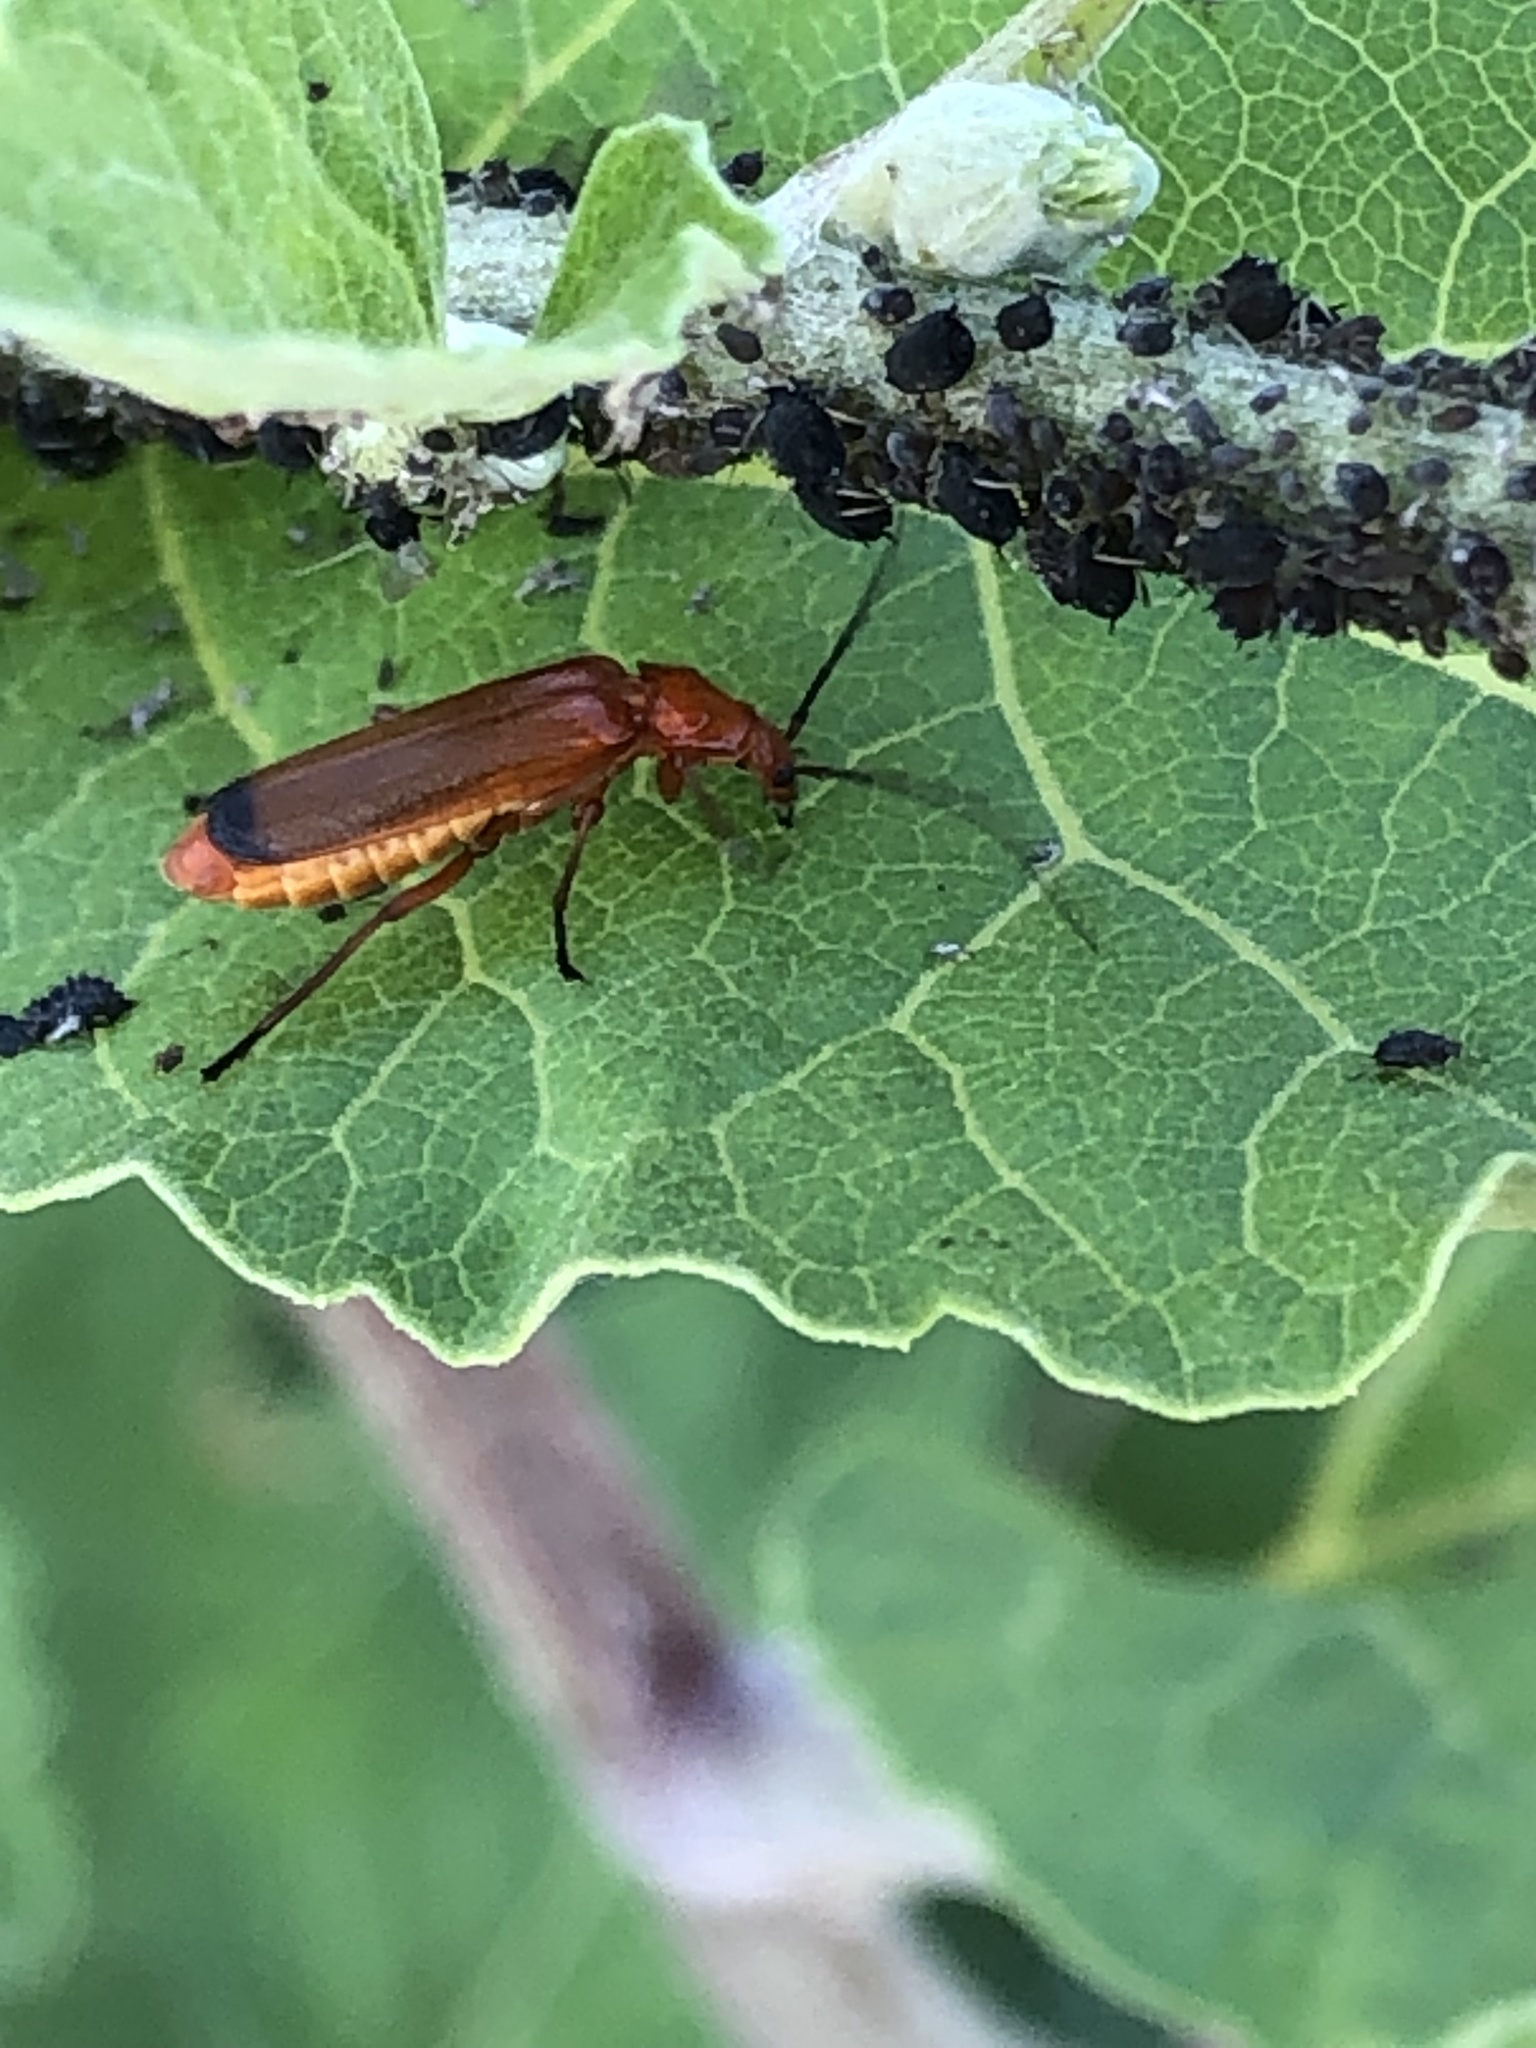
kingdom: Animalia
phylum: Arthropoda
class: Insecta
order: Coleoptera
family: Cantharidae
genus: Rhagonycha
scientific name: Rhagonycha fulva
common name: Common red soldier beetle
